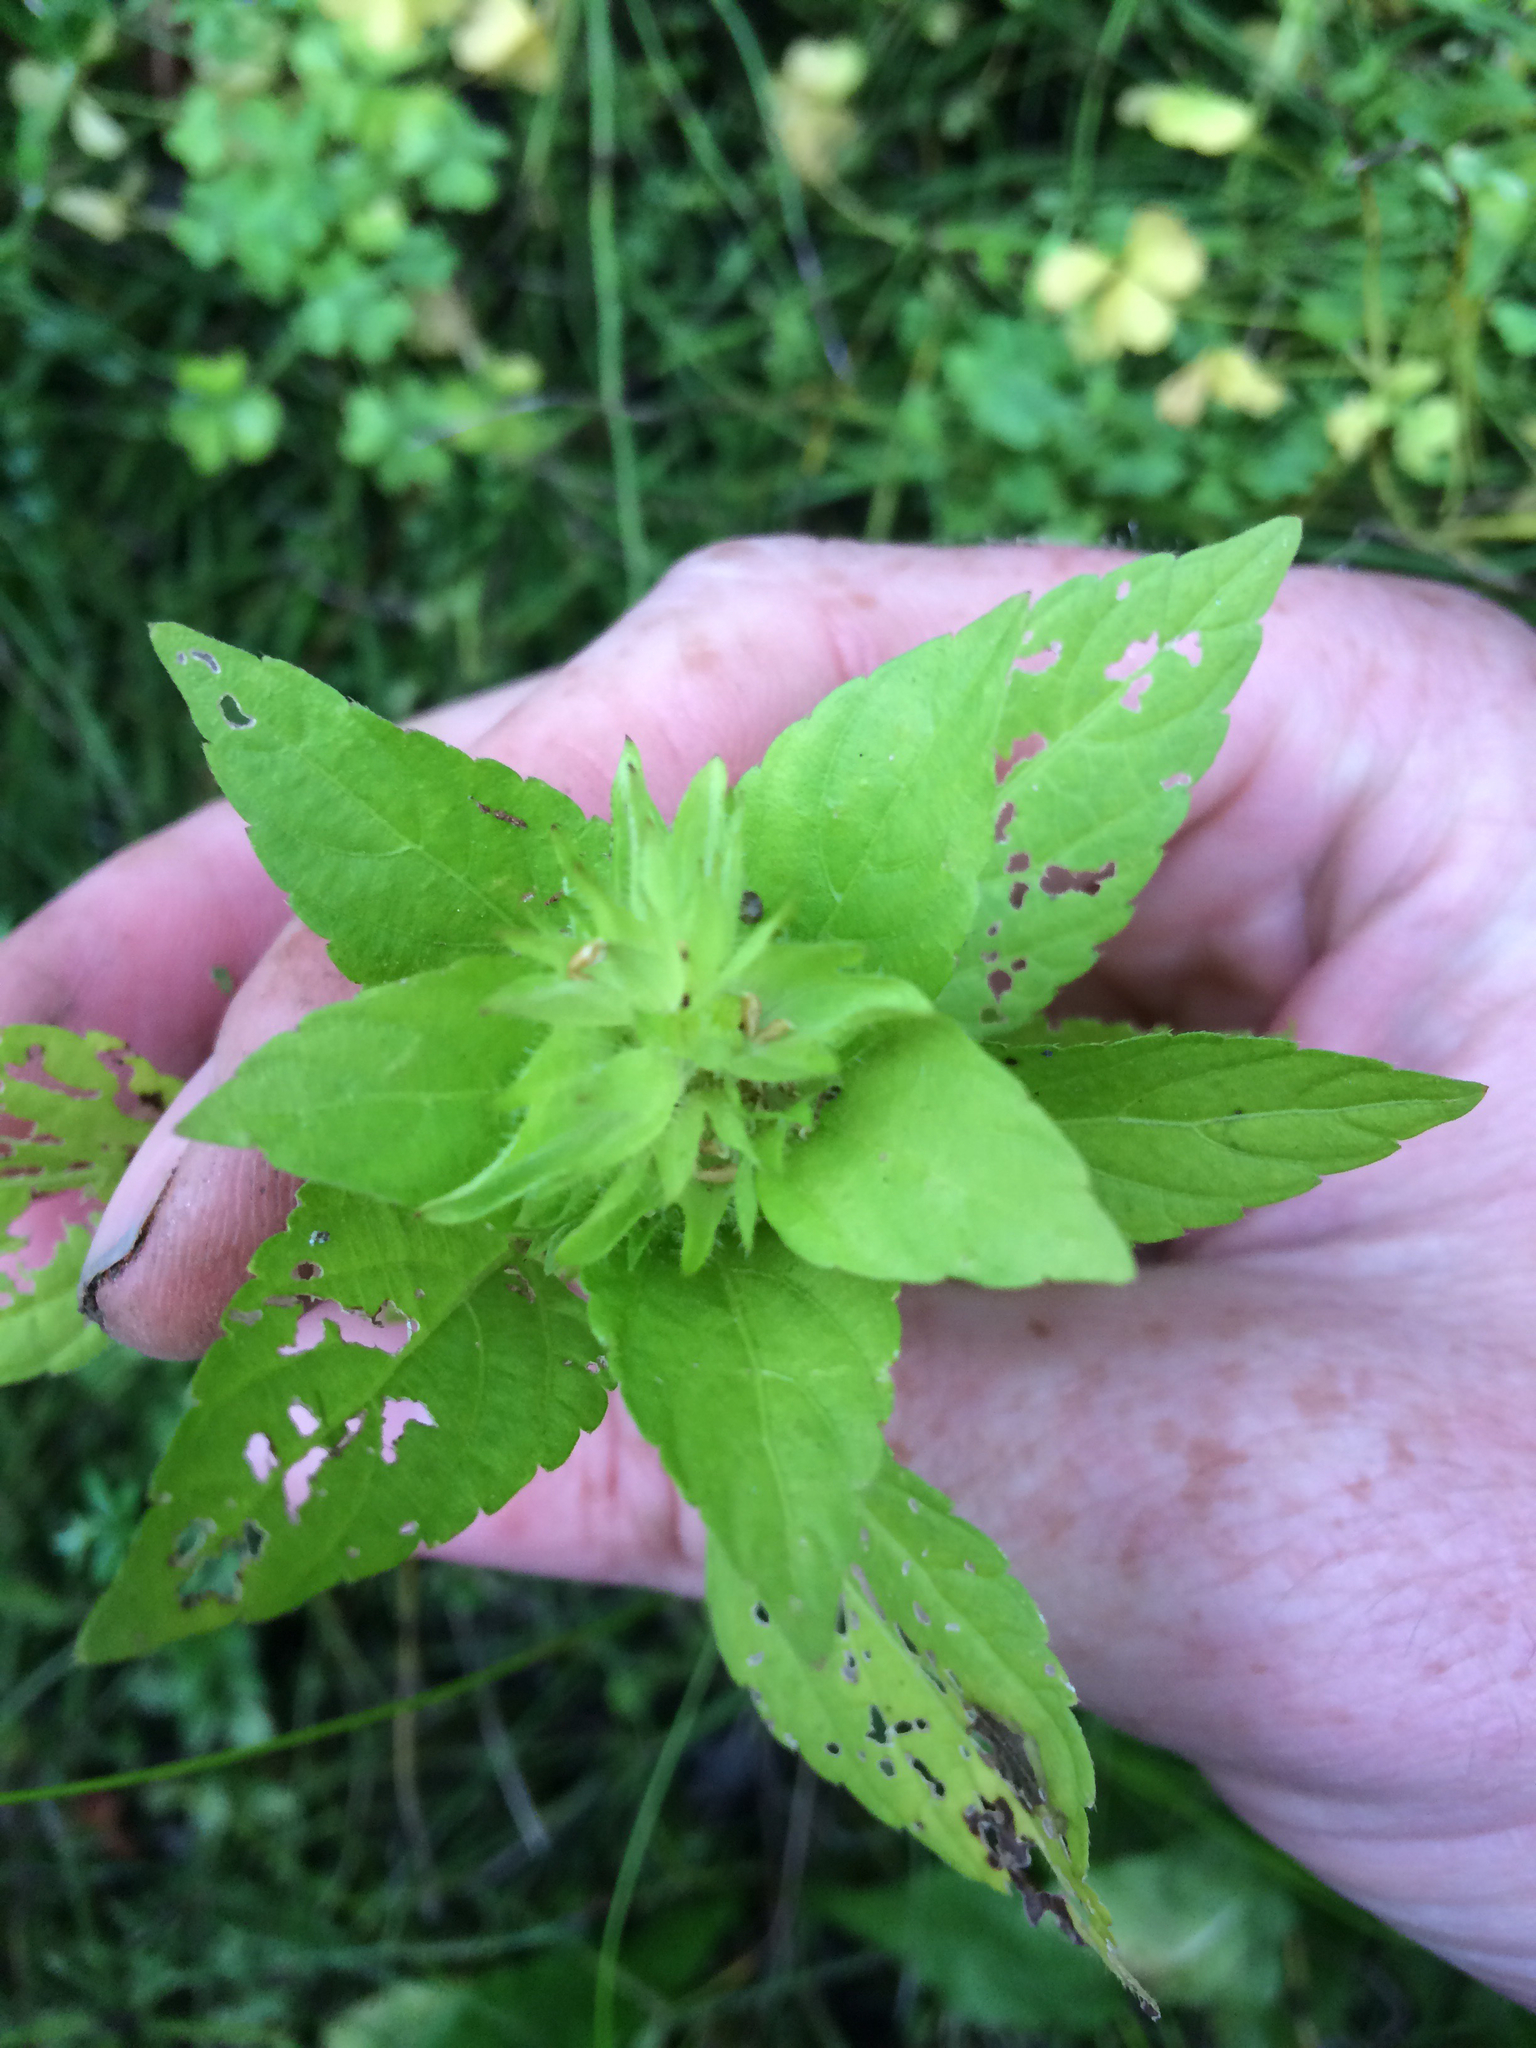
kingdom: Plantae
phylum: Tracheophyta
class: Magnoliopsida
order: Malpighiales
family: Euphorbiaceae
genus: Acalypha
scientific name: Acalypha rhomboidea
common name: Rhombic copperleaf
